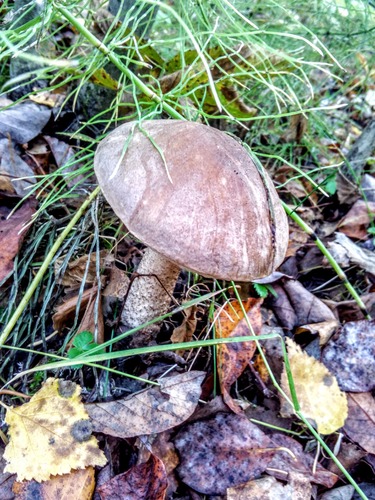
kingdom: Fungi
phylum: Basidiomycota
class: Agaricomycetes
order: Boletales
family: Boletaceae
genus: Leccinum
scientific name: Leccinum
